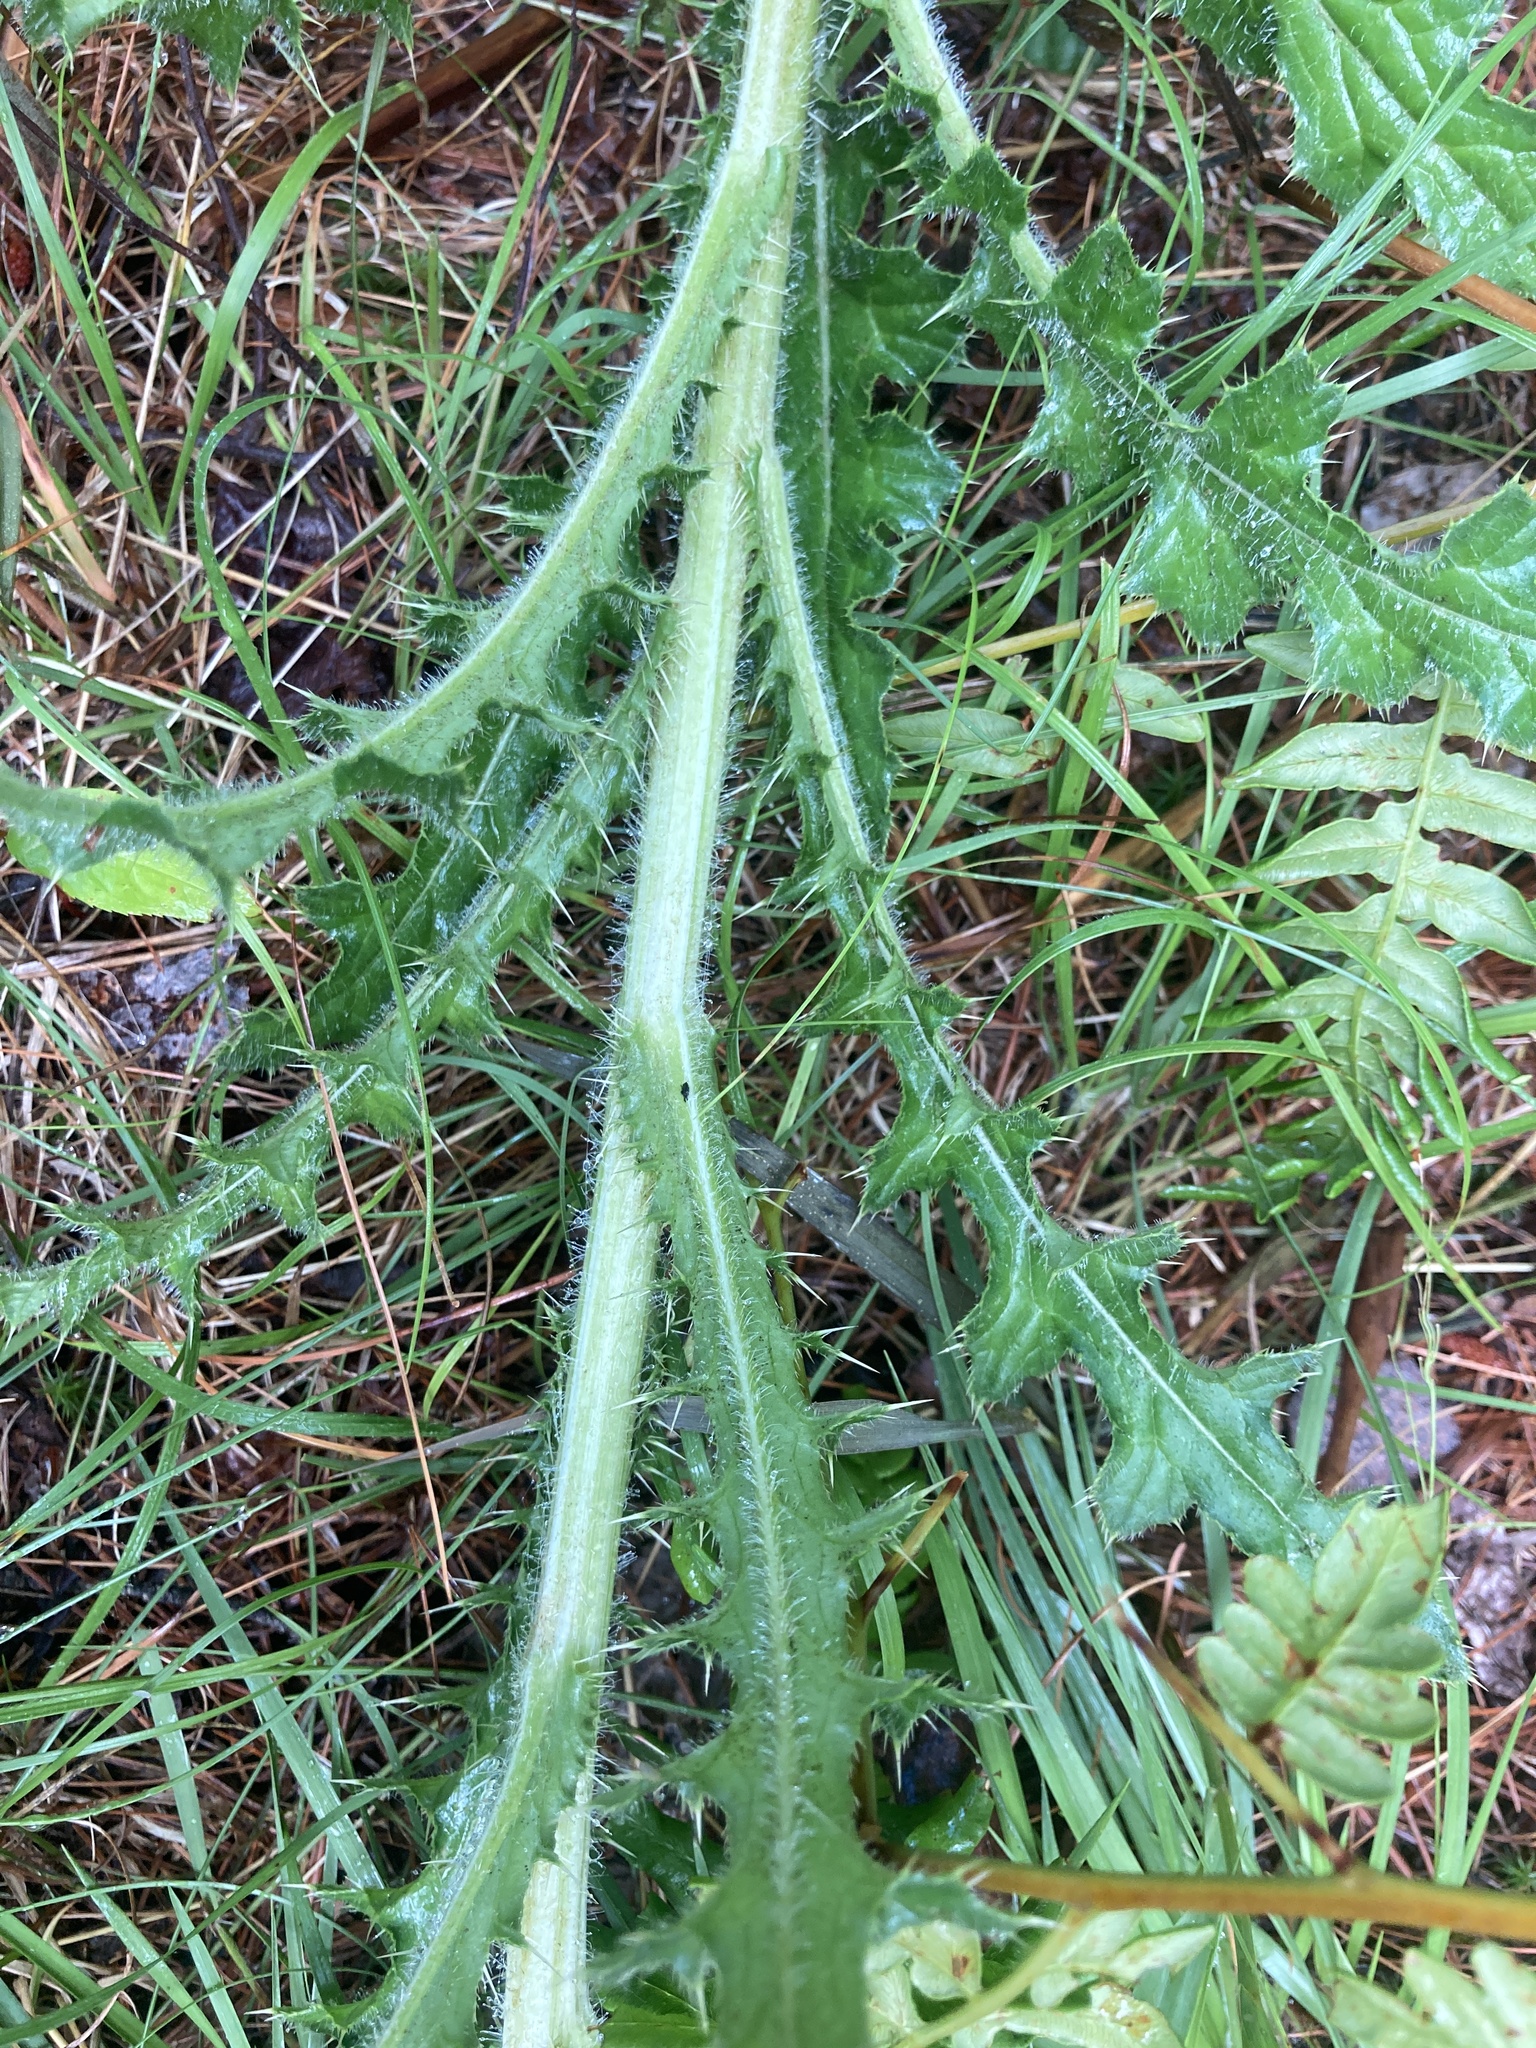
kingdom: Plantae
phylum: Tracheophyta
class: Magnoliopsida
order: Asterales
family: Asteraceae
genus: Cirsium
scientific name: Cirsium pumilum
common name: Pasture thistle
